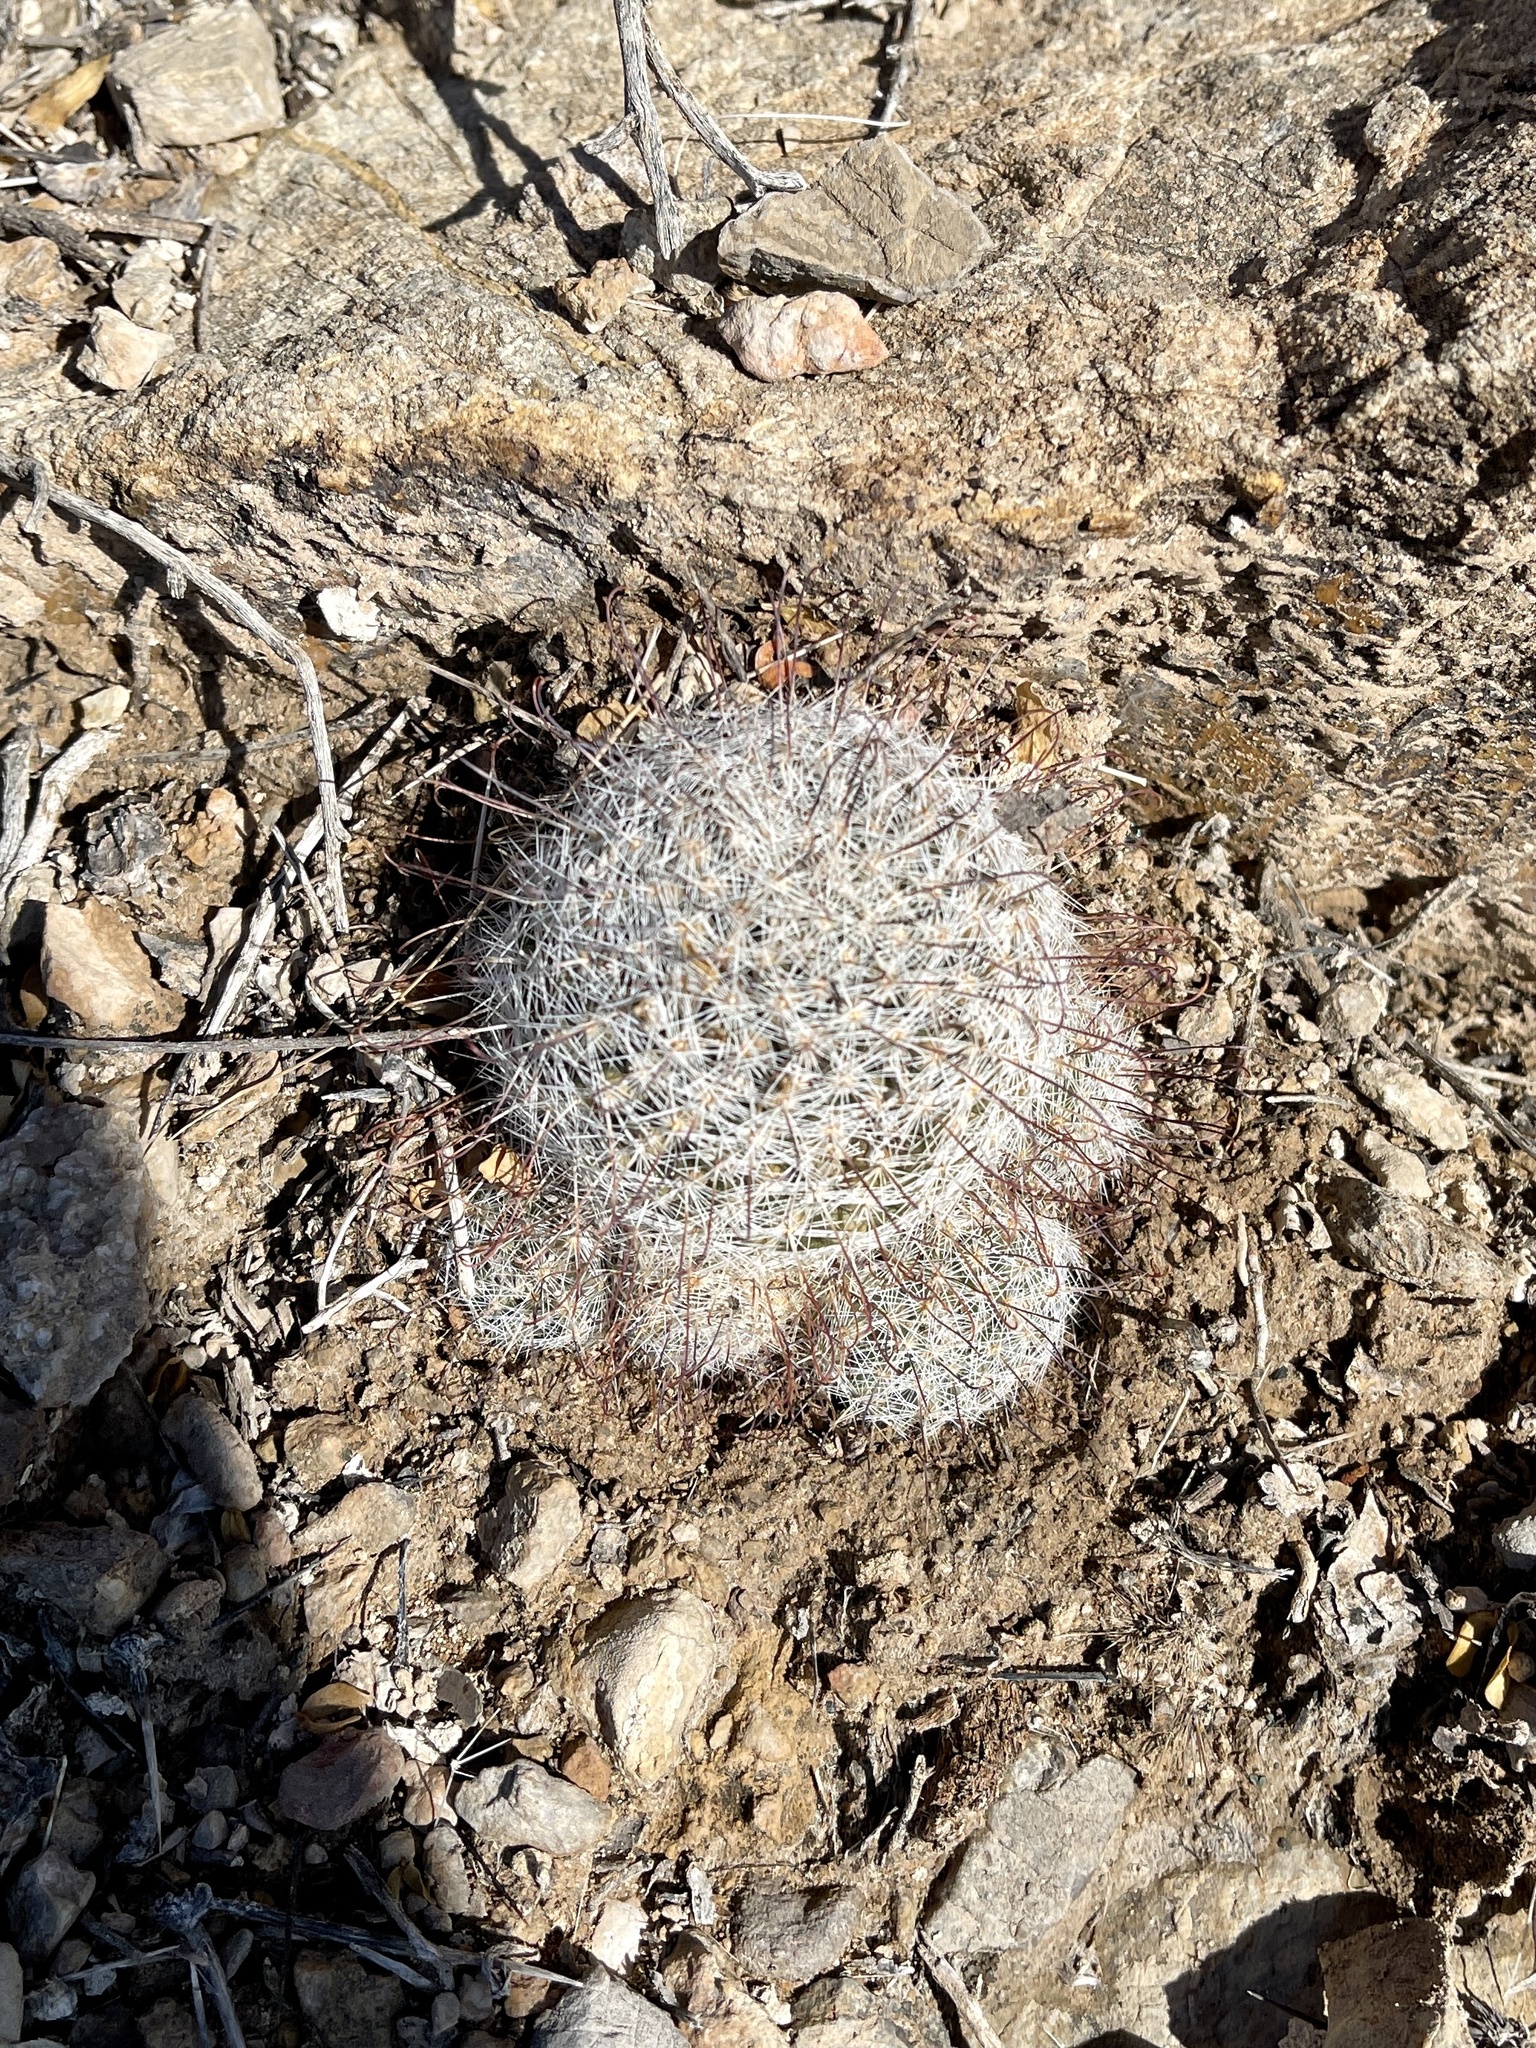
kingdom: Plantae
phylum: Tracheophyta
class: Magnoliopsida
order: Caryophyllales
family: Cactaceae
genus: Cochemiea
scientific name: Cochemiea grahamii
